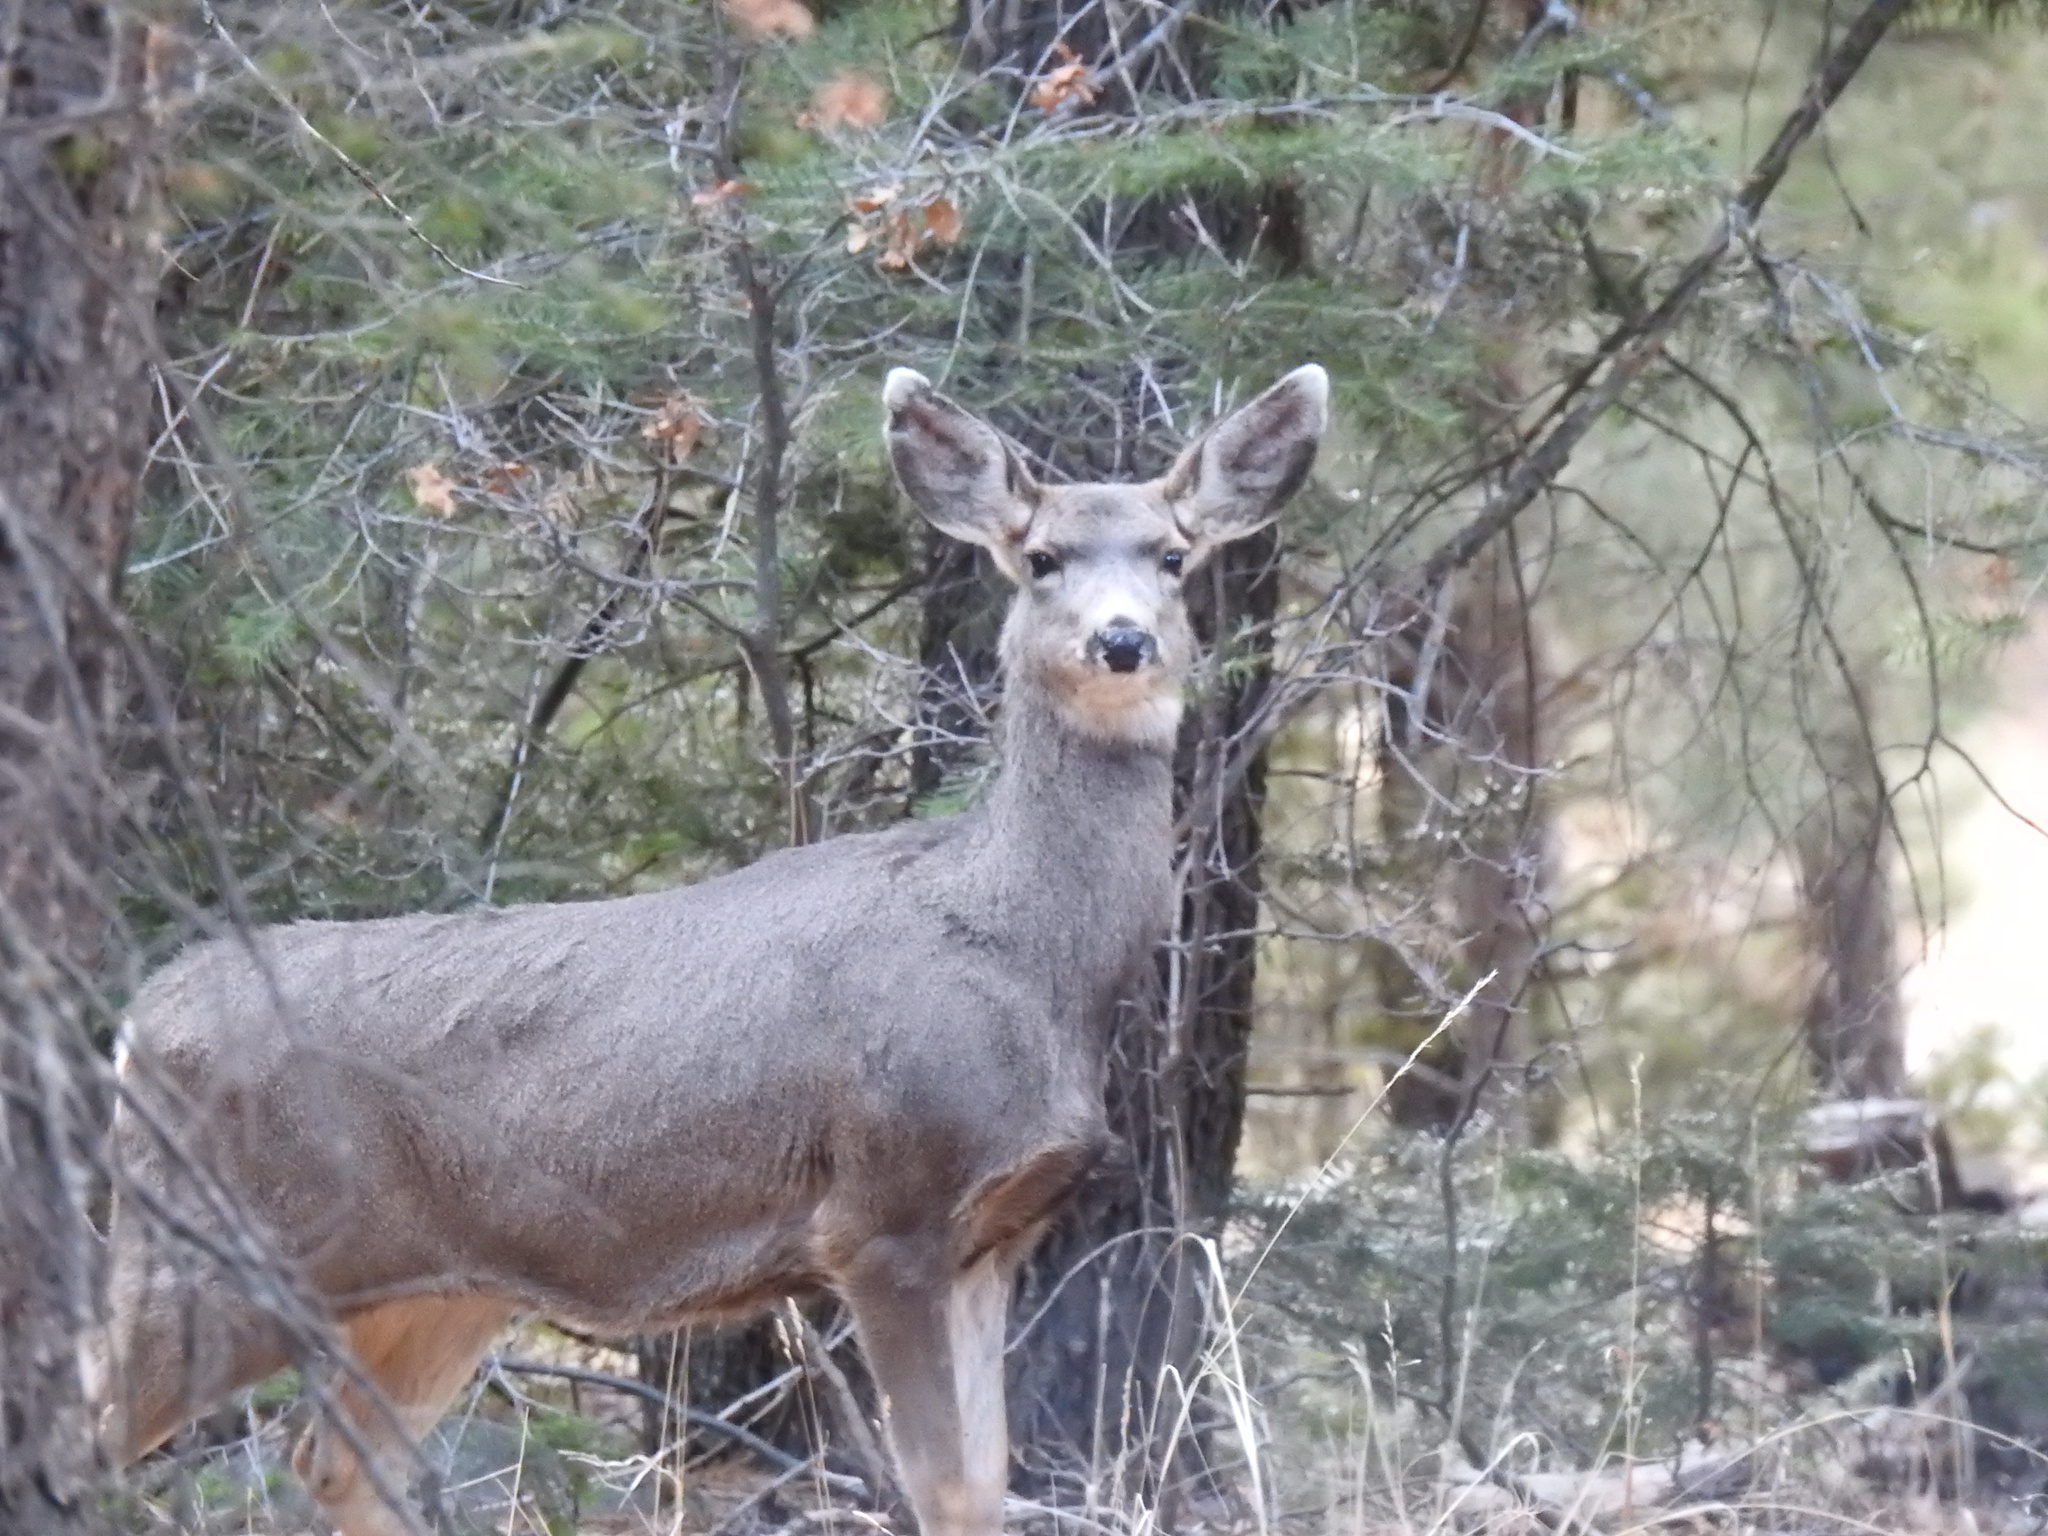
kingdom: Animalia
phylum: Chordata
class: Mammalia
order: Artiodactyla
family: Cervidae
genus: Odocoileus
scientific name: Odocoileus hemionus
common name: Mule deer
